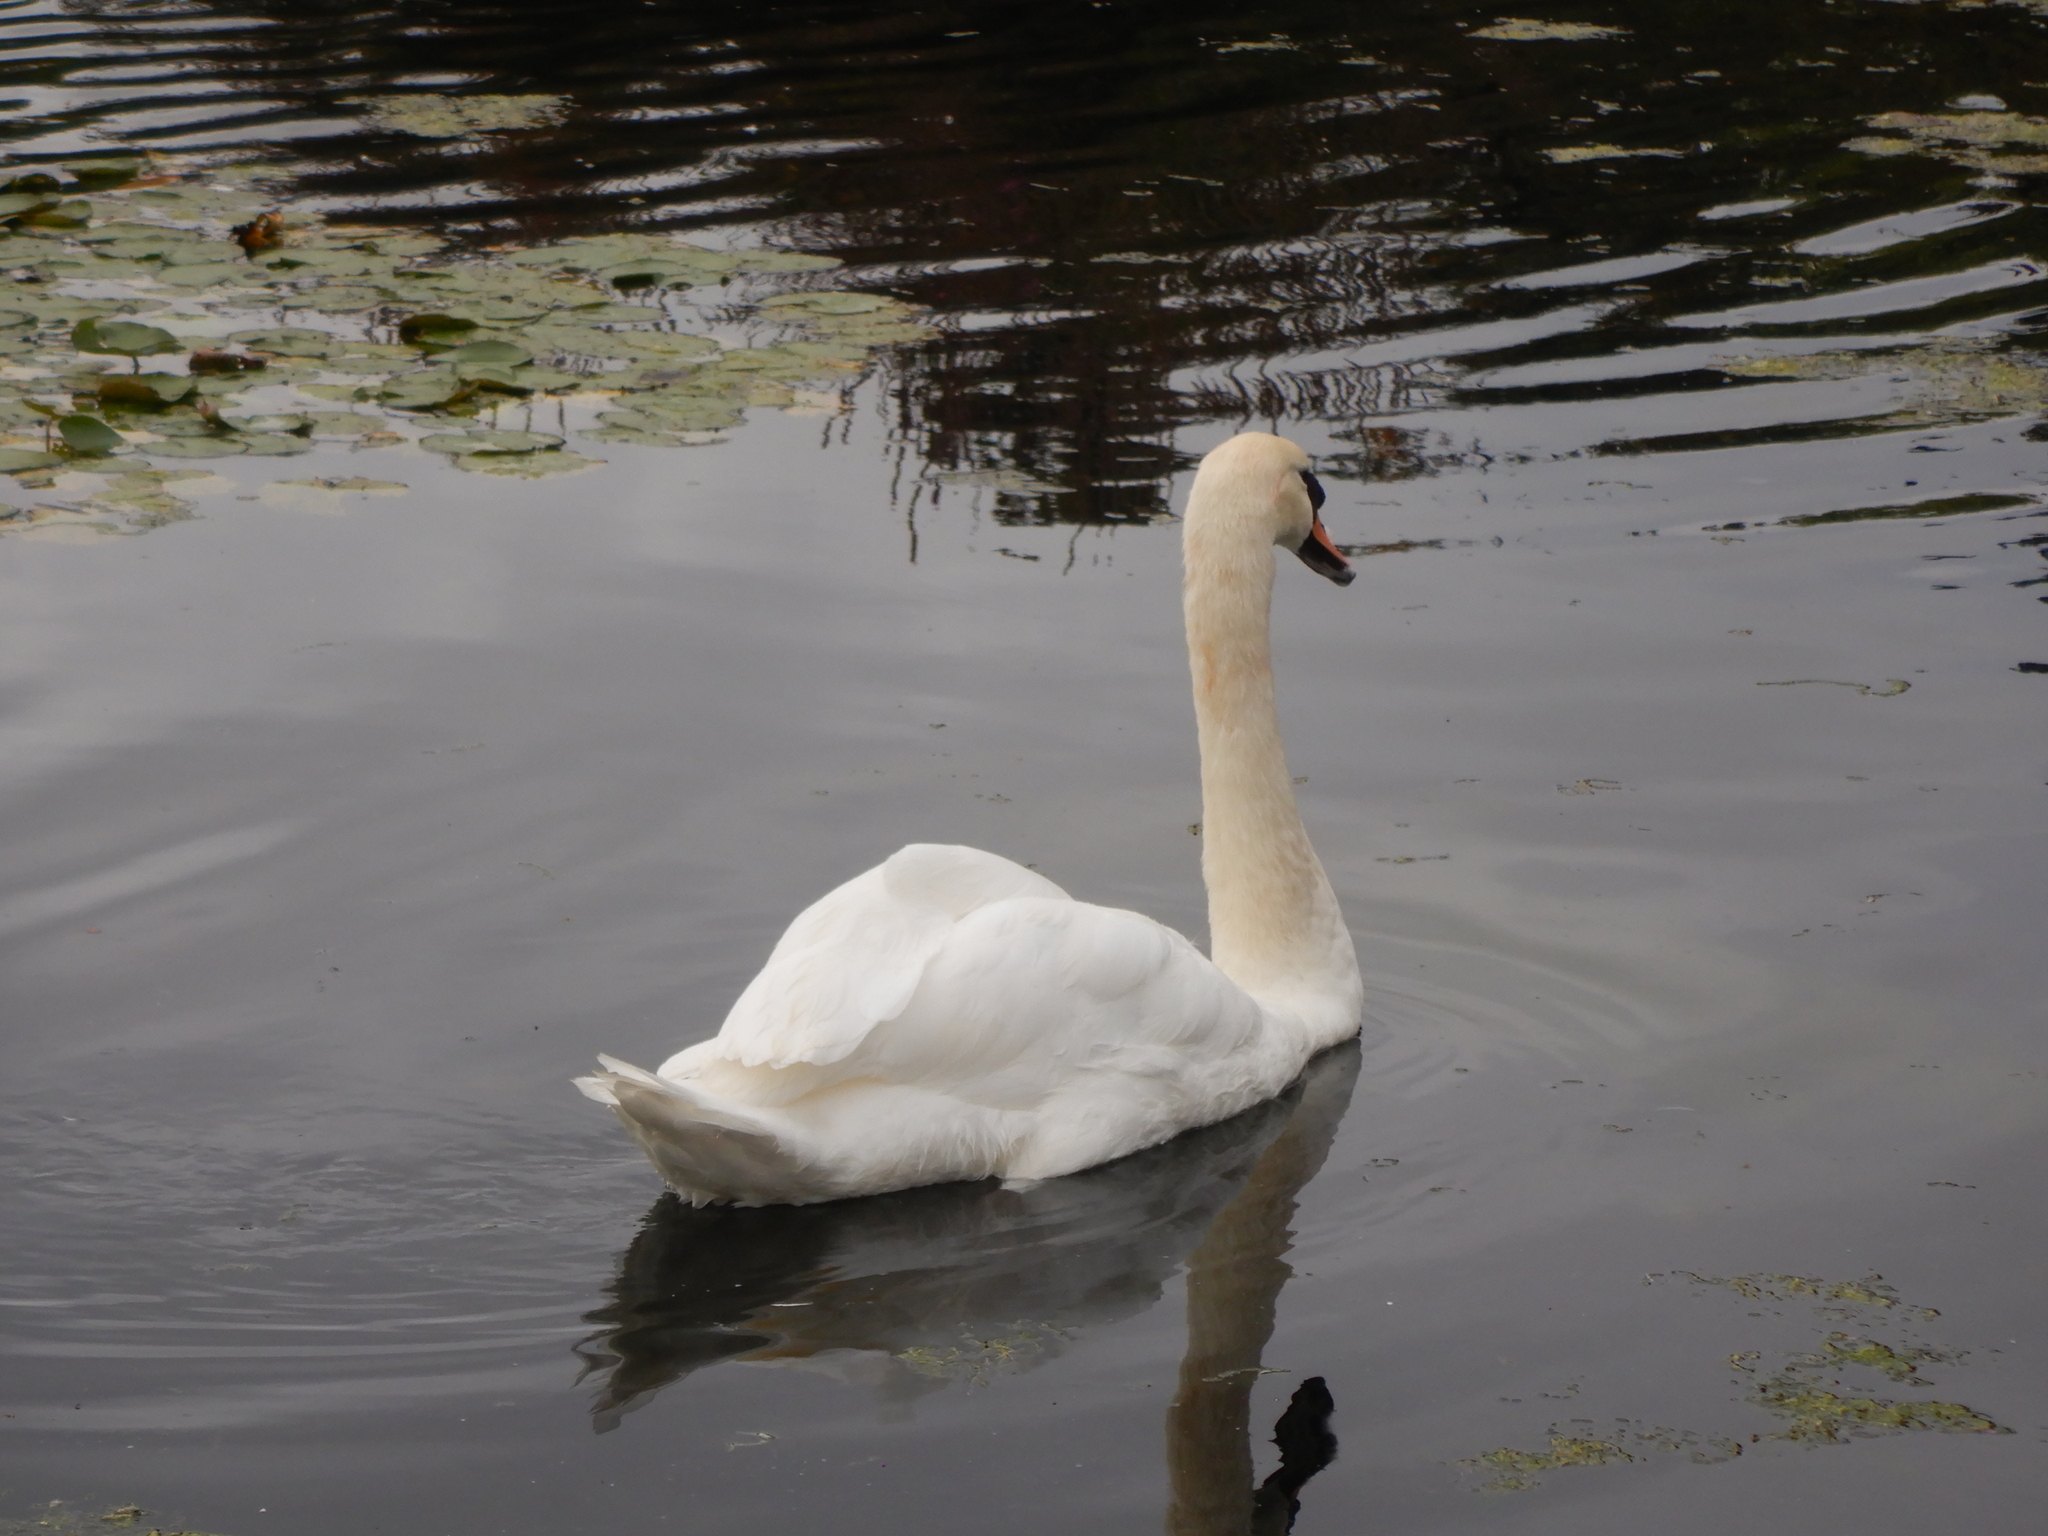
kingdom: Animalia
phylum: Chordata
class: Aves
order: Anseriformes
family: Anatidae
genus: Cygnus
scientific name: Cygnus olor
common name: Mute swan
